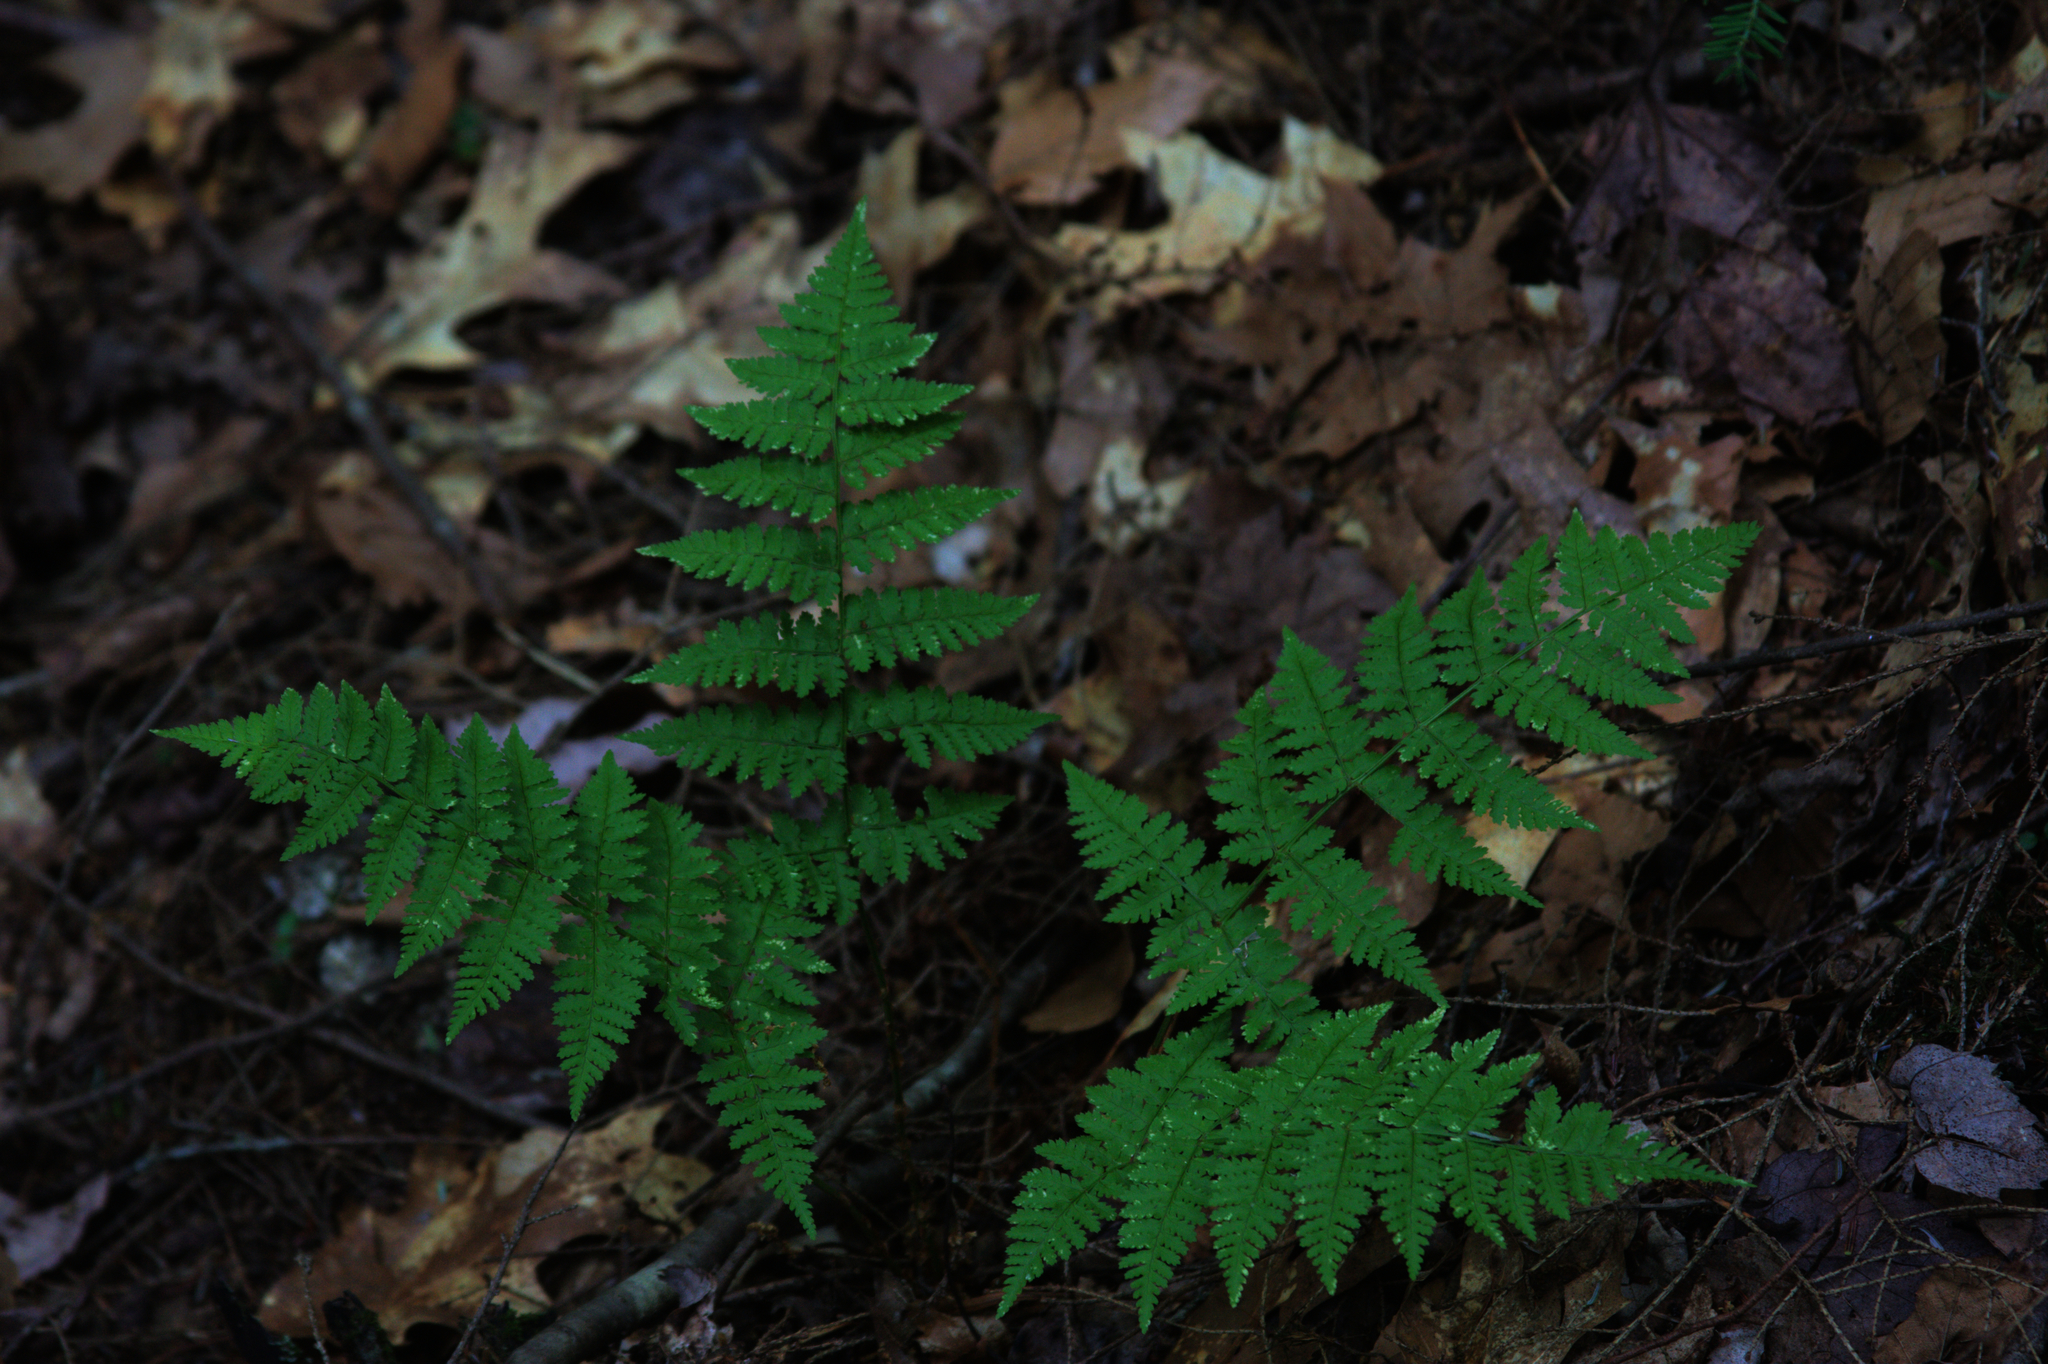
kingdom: Plantae
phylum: Tracheophyta
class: Polypodiopsida
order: Polypodiales
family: Dryopteridaceae
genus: Dryopteris
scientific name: Dryopteris intermedia
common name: Evergreen wood fern
